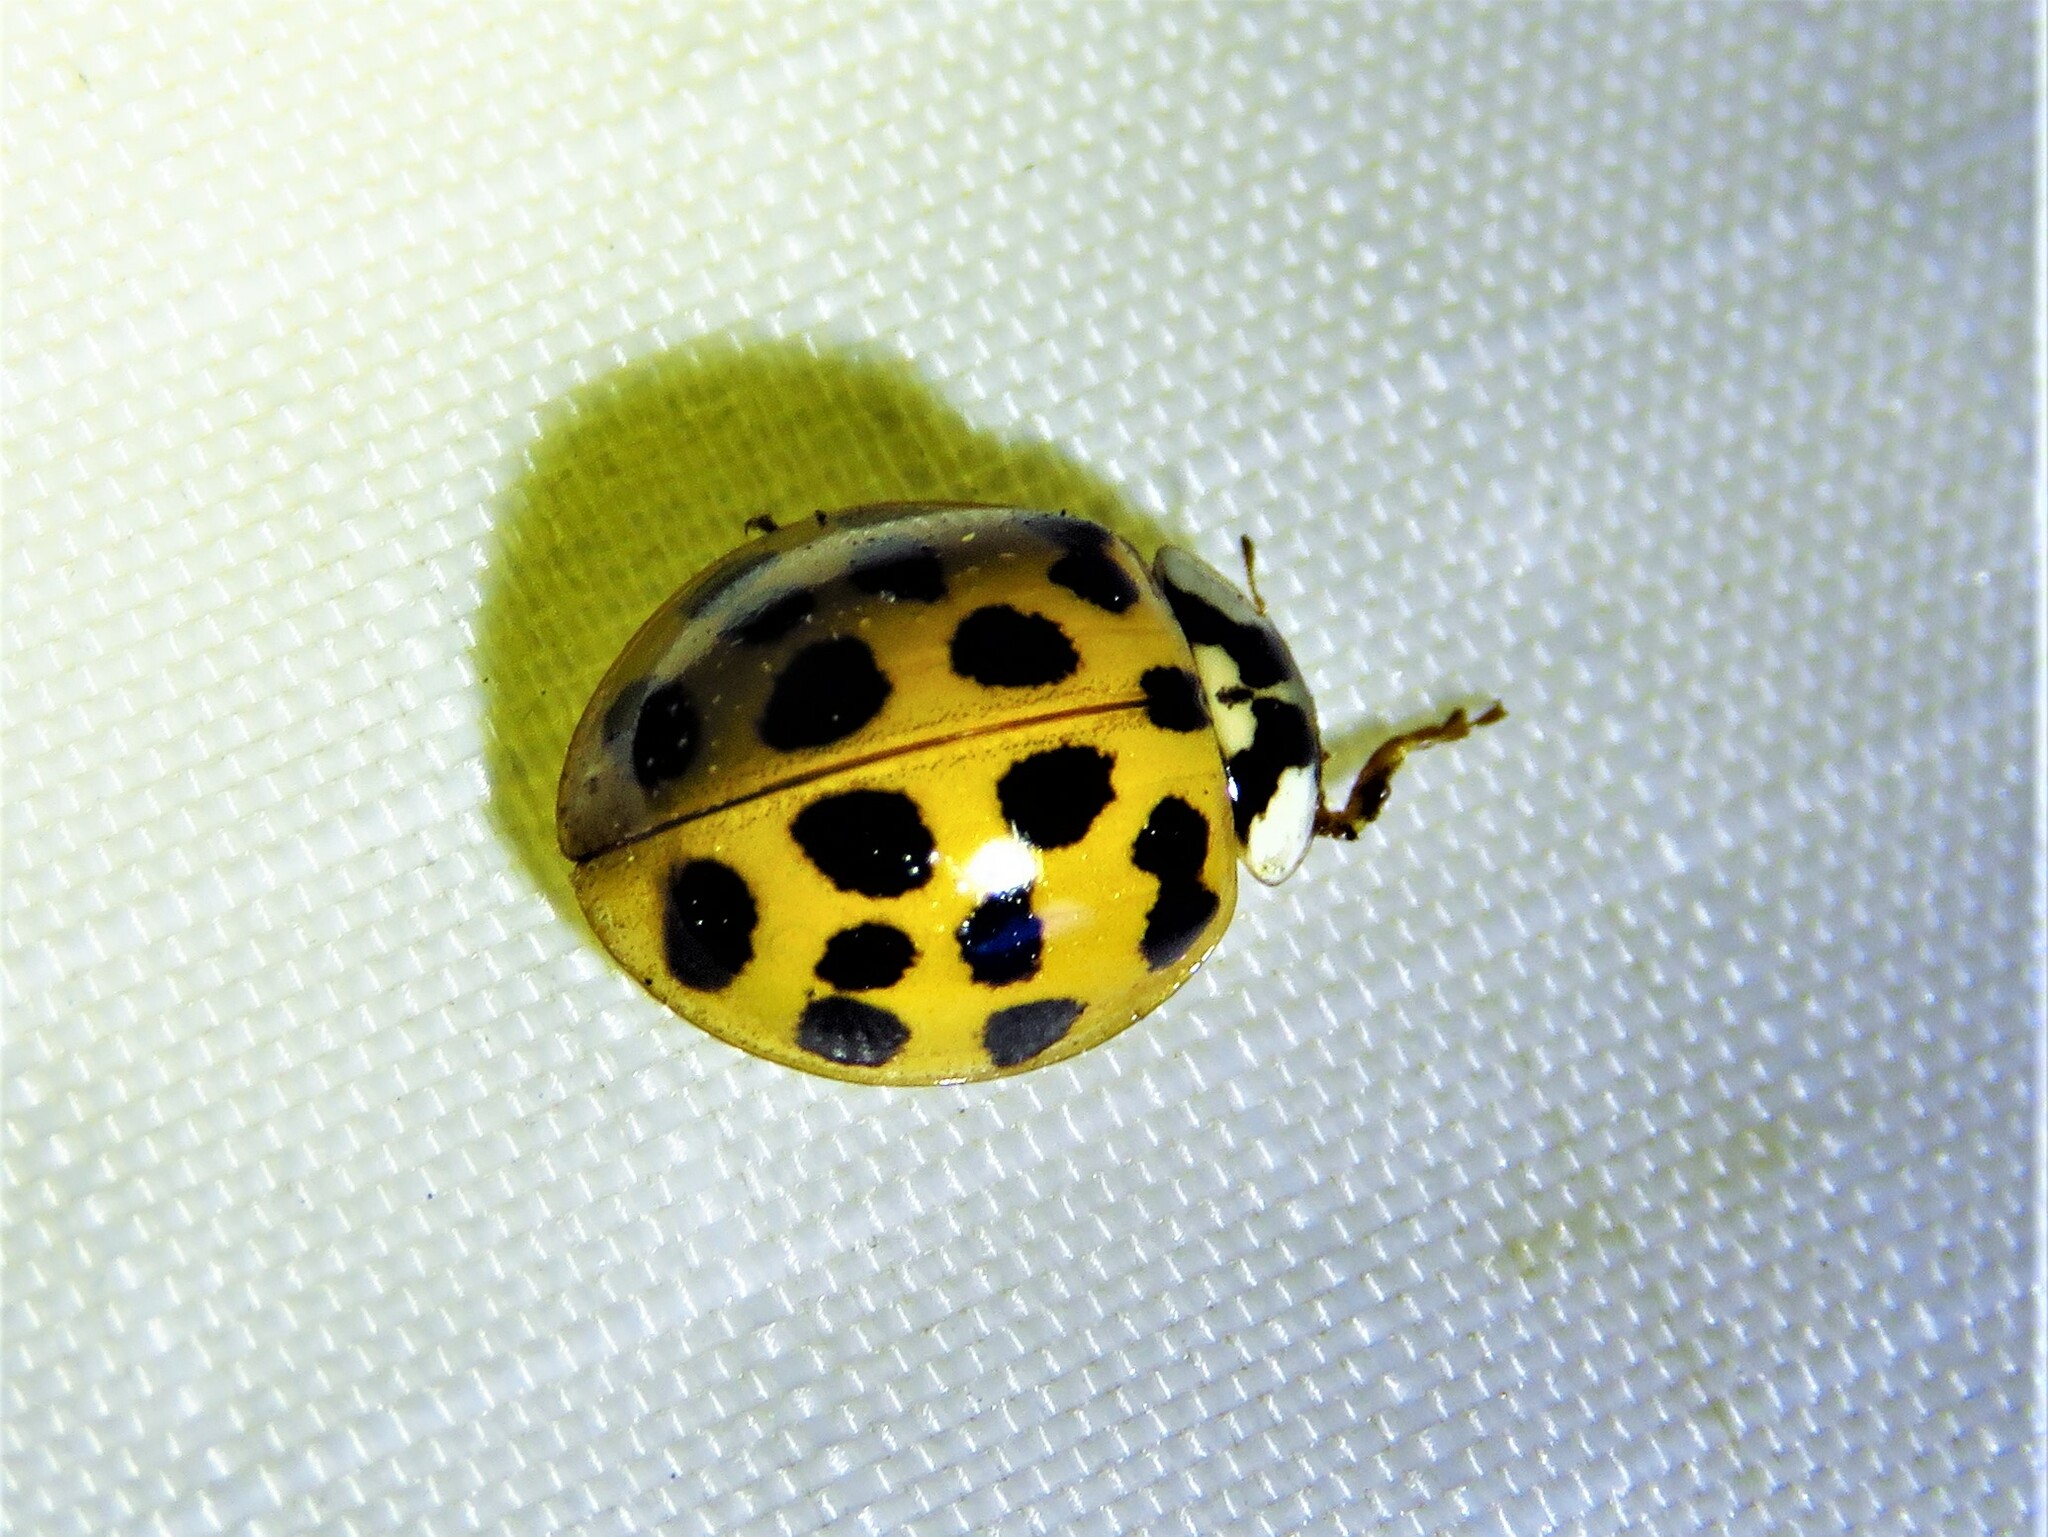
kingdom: Animalia
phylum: Arthropoda
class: Insecta
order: Coleoptera
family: Coccinellidae
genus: Harmonia
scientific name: Harmonia axyridis
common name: Harlequin ladybird
